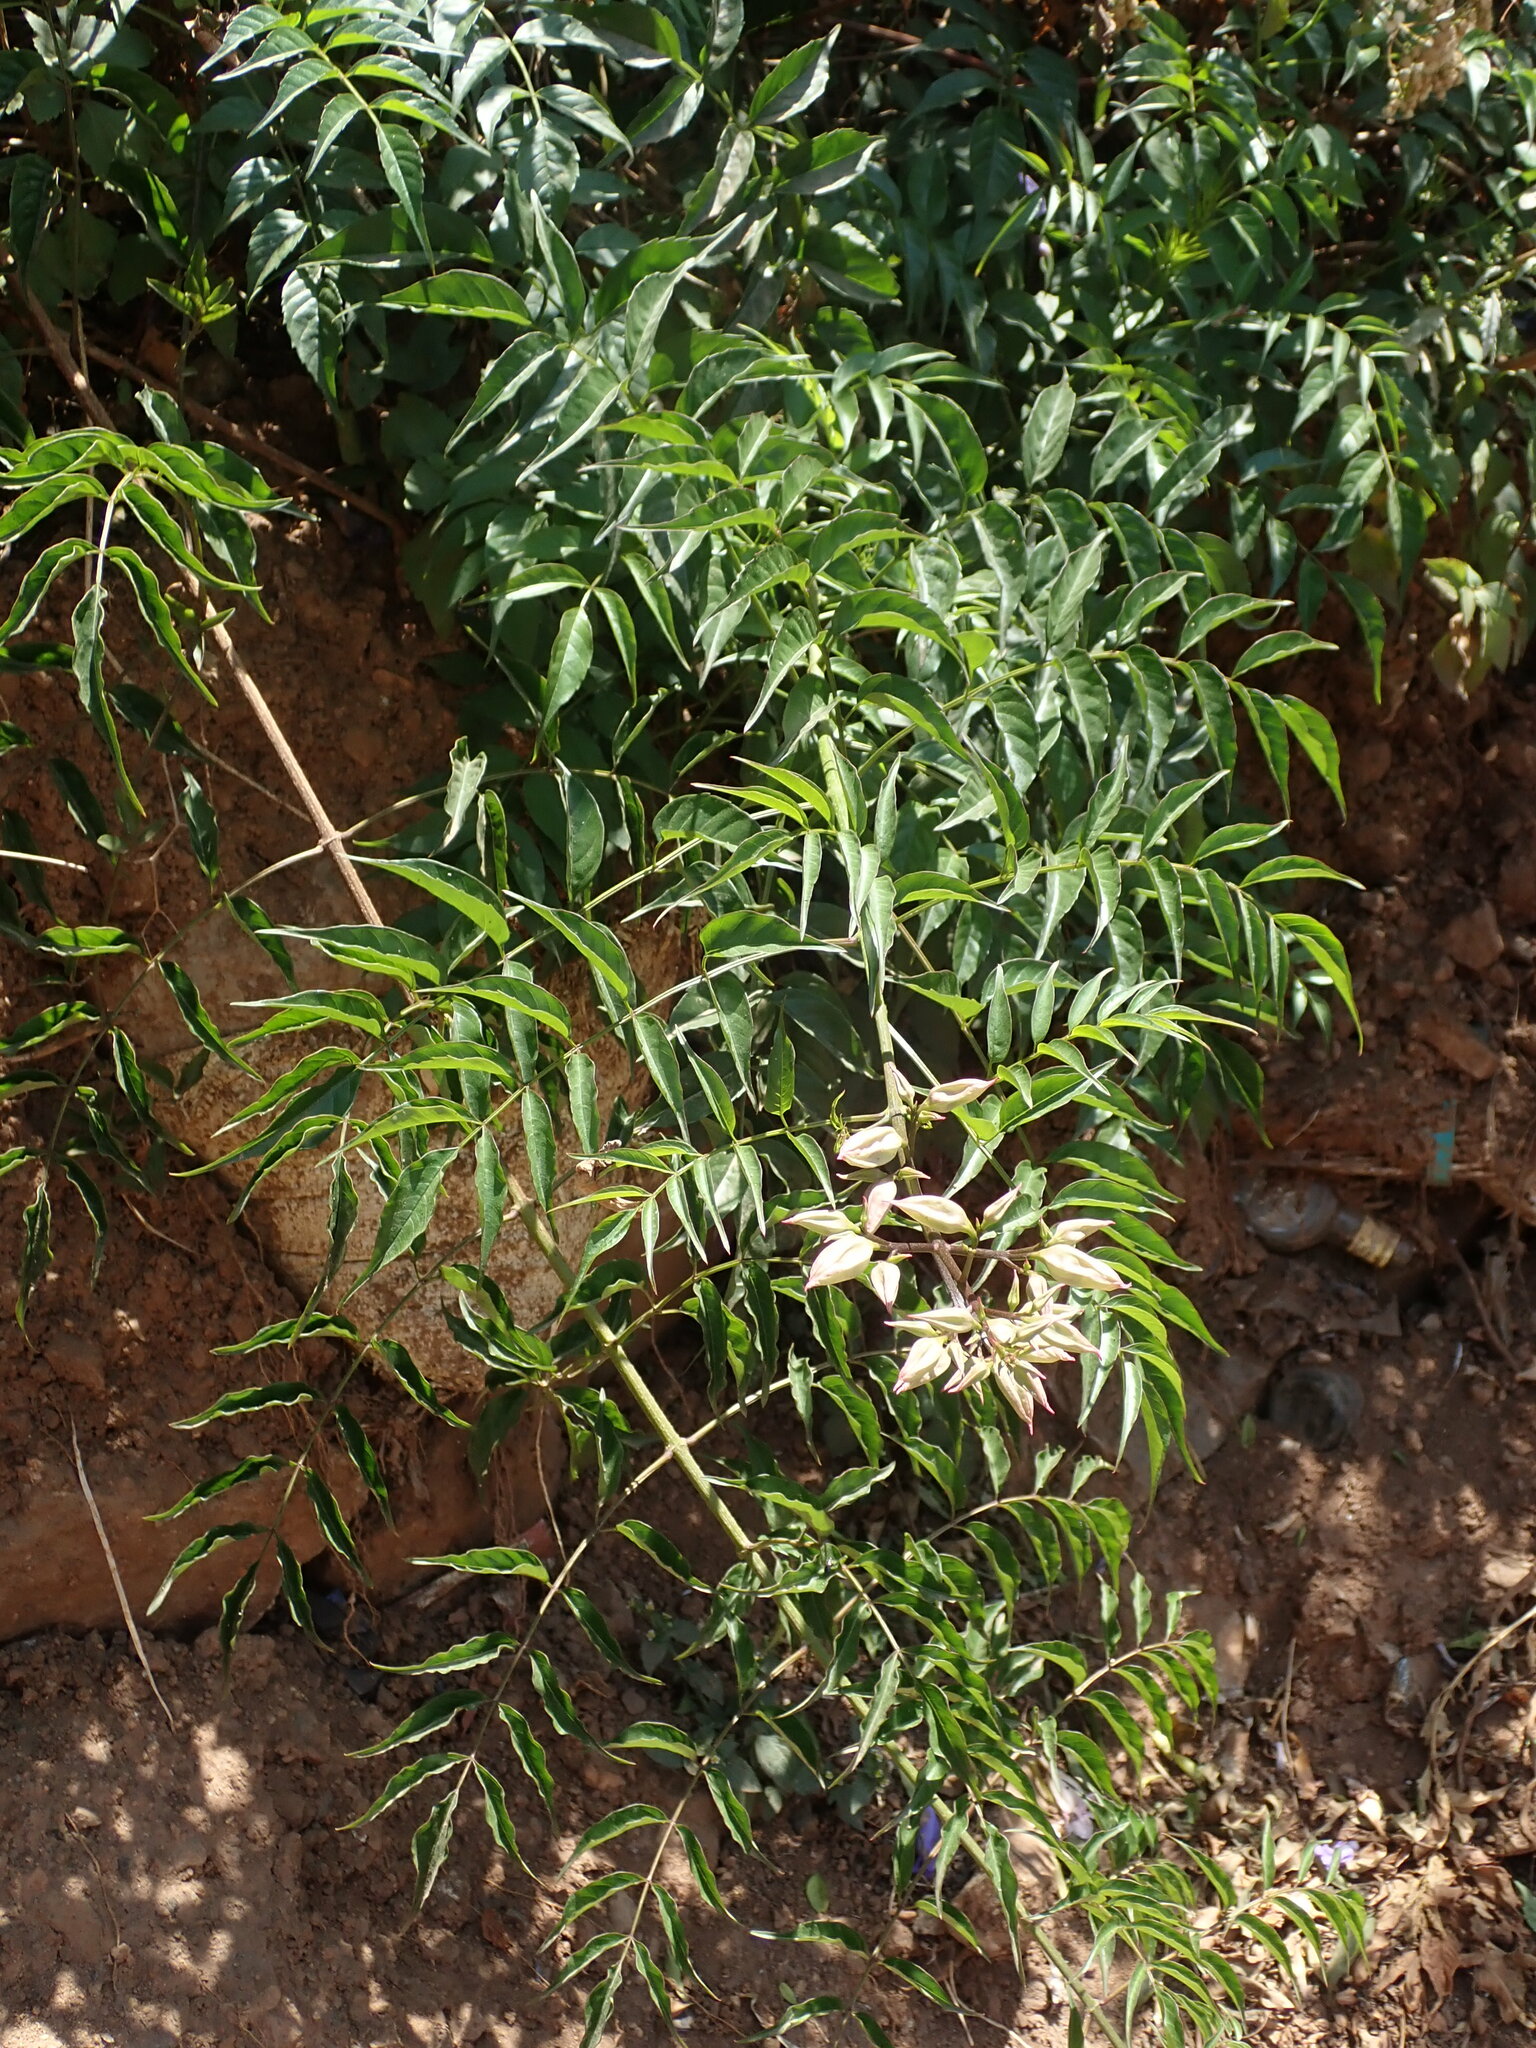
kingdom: Plantae
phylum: Tracheophyta
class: Magnoliopsida
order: Lamiales
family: Bignoniaceae
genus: Podranea
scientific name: Podranea ricasoliana
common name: Zimbabwe creeper
